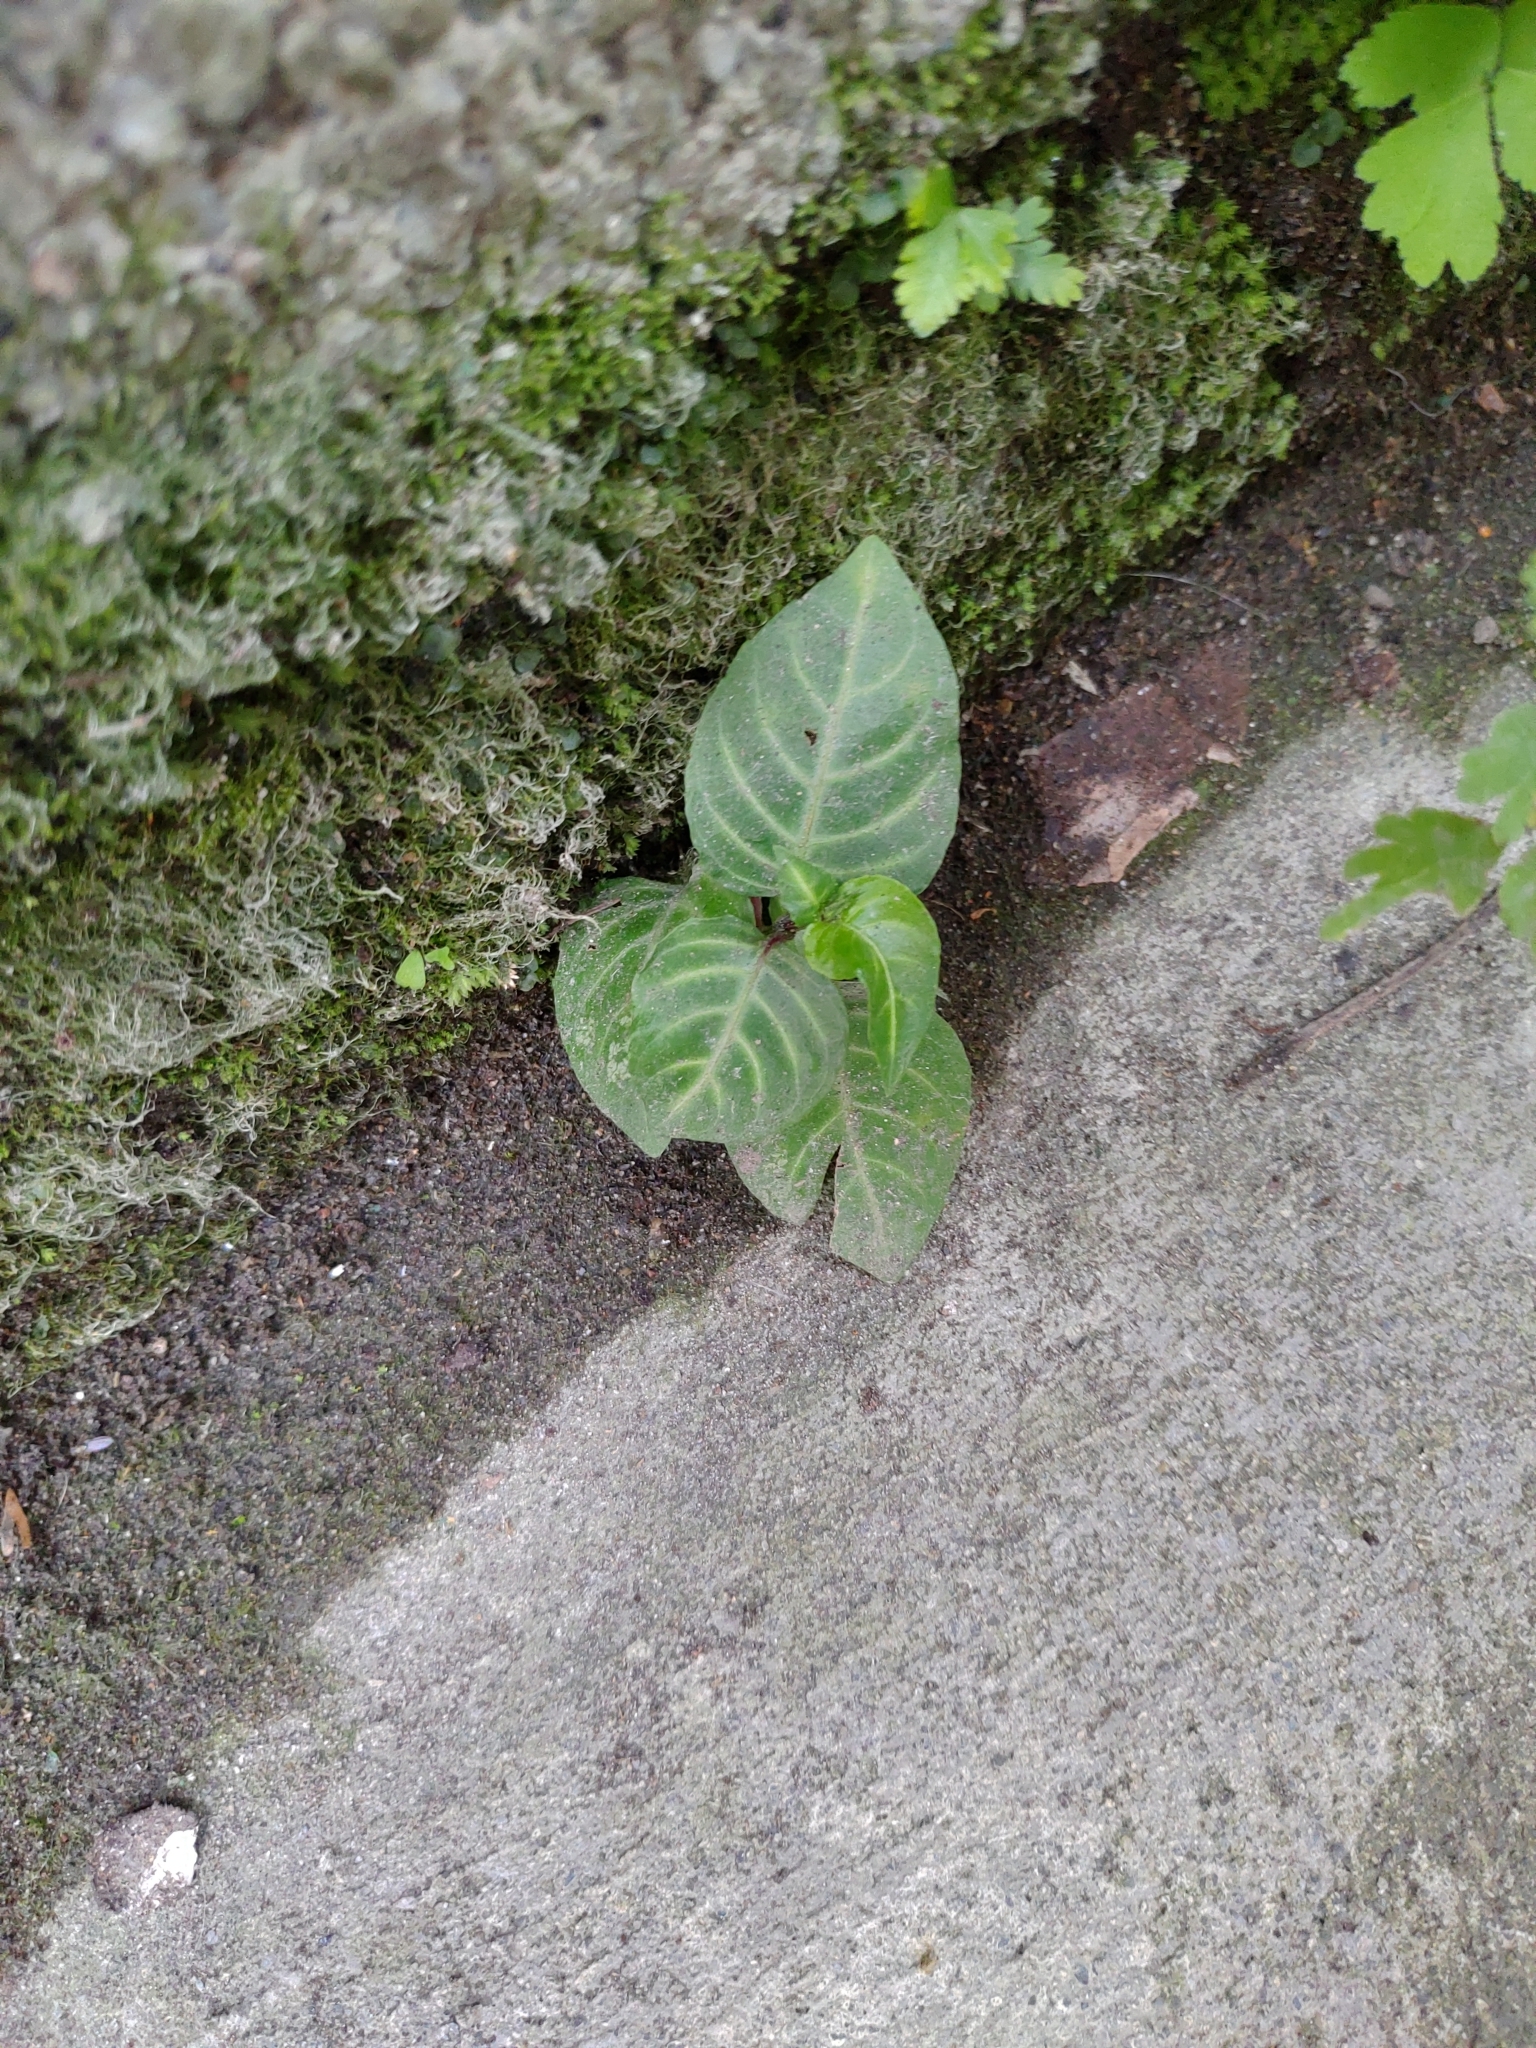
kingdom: Plantae
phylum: Tracheophyta
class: Magnoliopsida
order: Lamiales
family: Acanthaceae
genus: Lepidagathis
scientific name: Lepidagathis inaequalis
